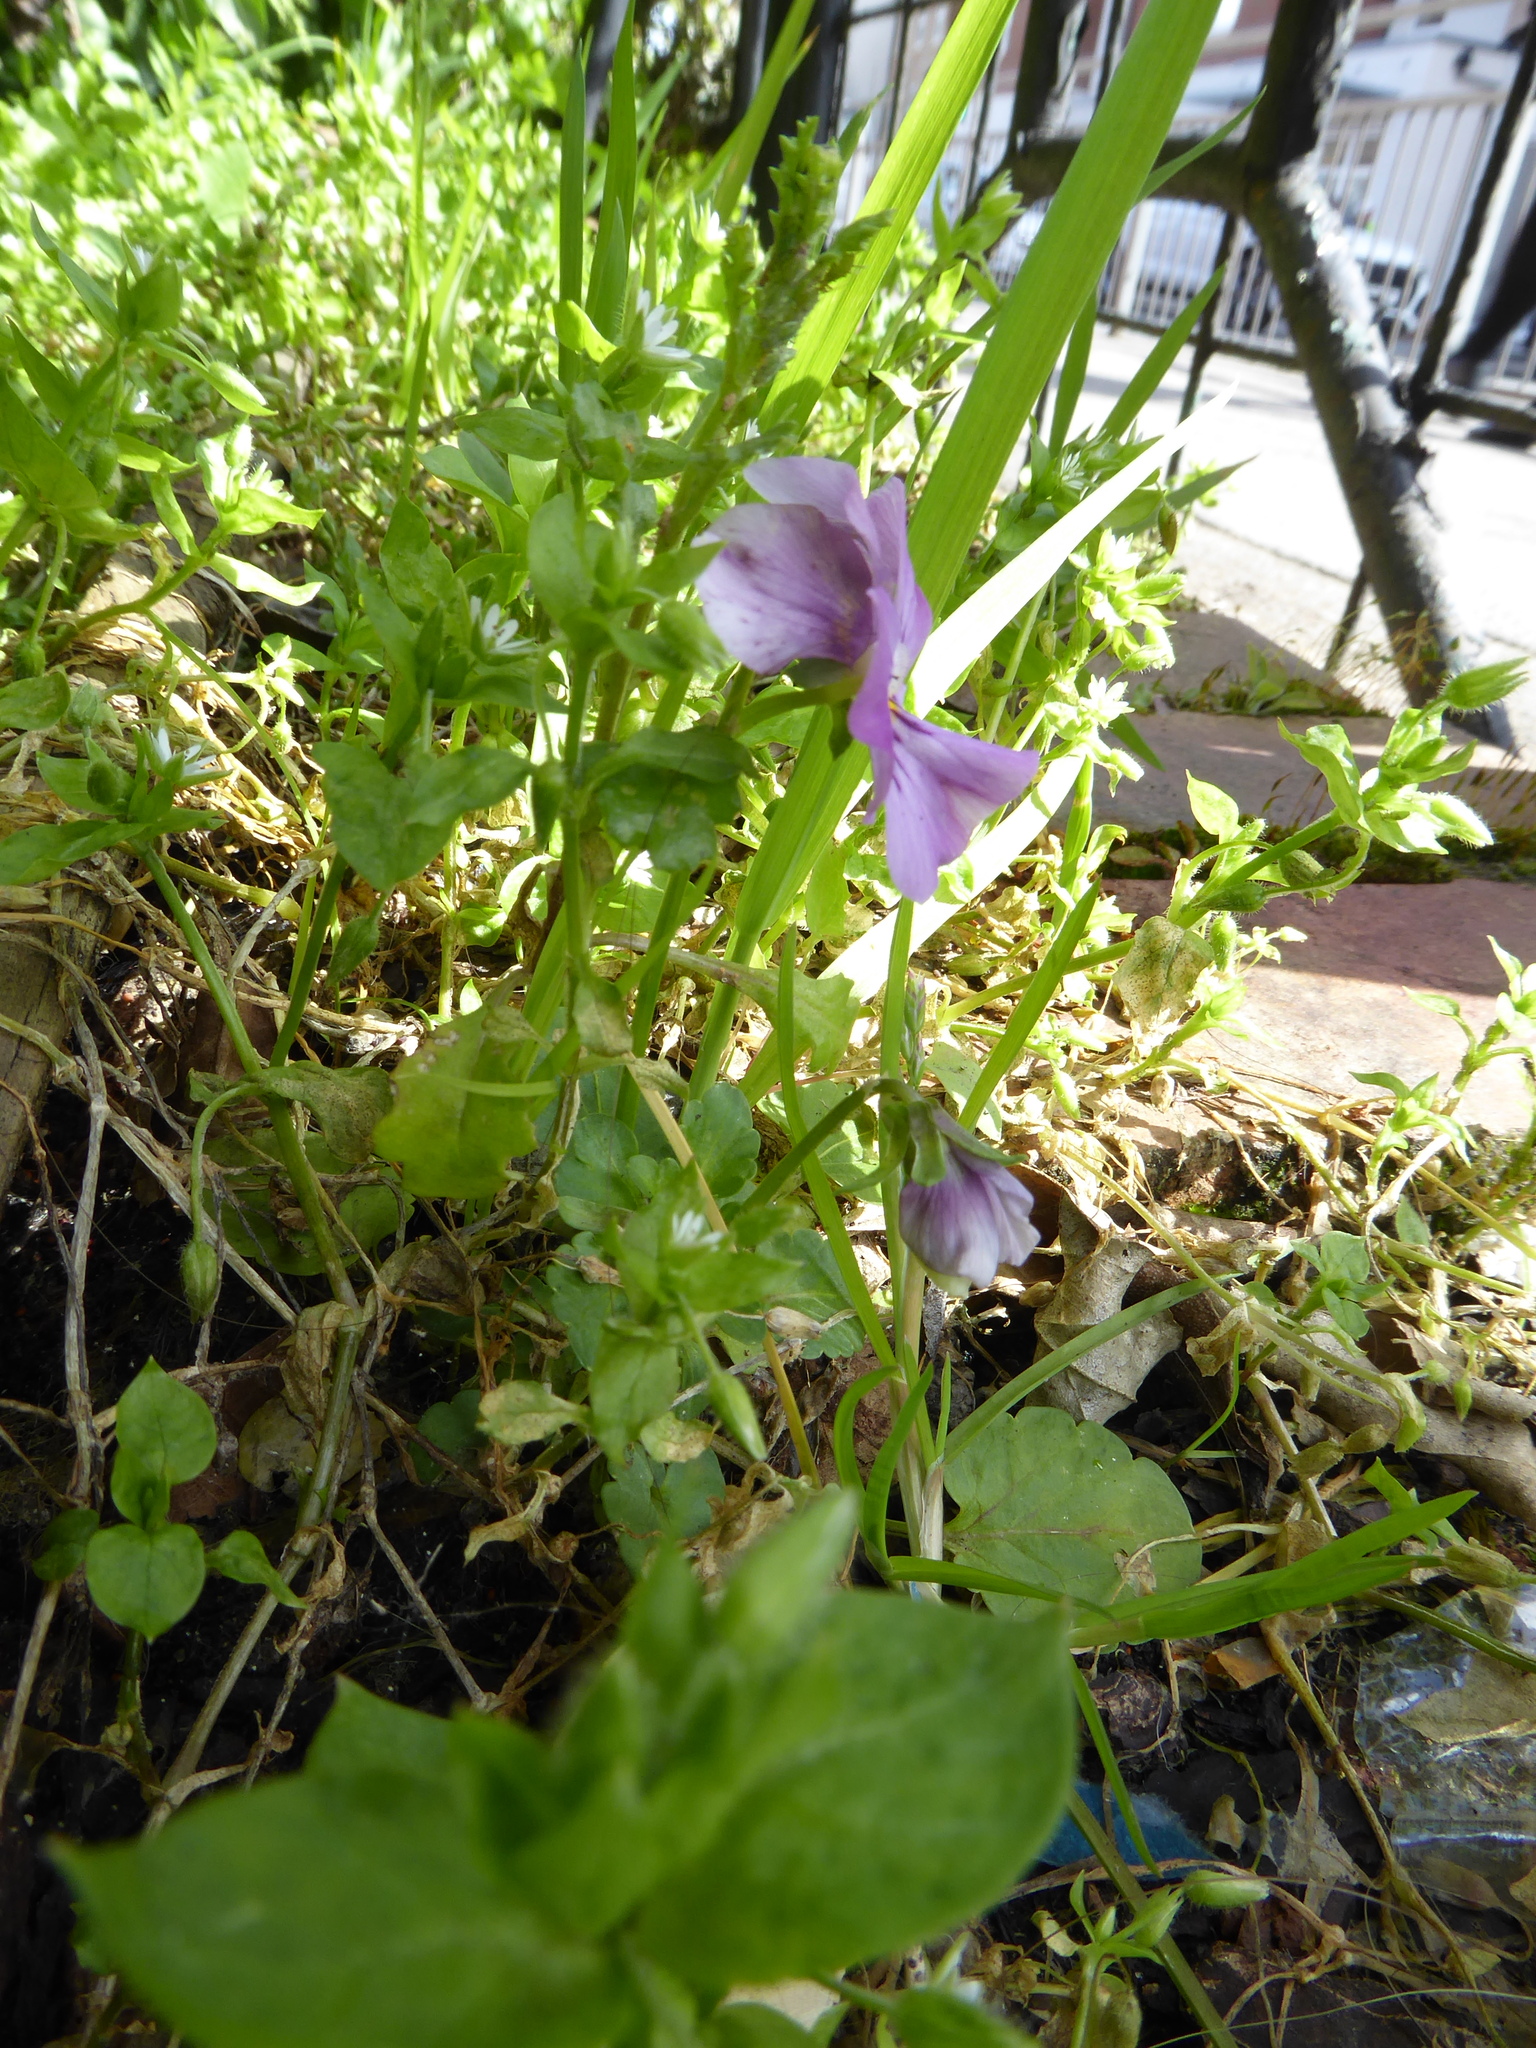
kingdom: Plantae
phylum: Tracheophyta
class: Magnoliopsida
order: Malpighiales
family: Violaceae
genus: Viola
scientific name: Viola wittrockiana
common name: Garden pansy
